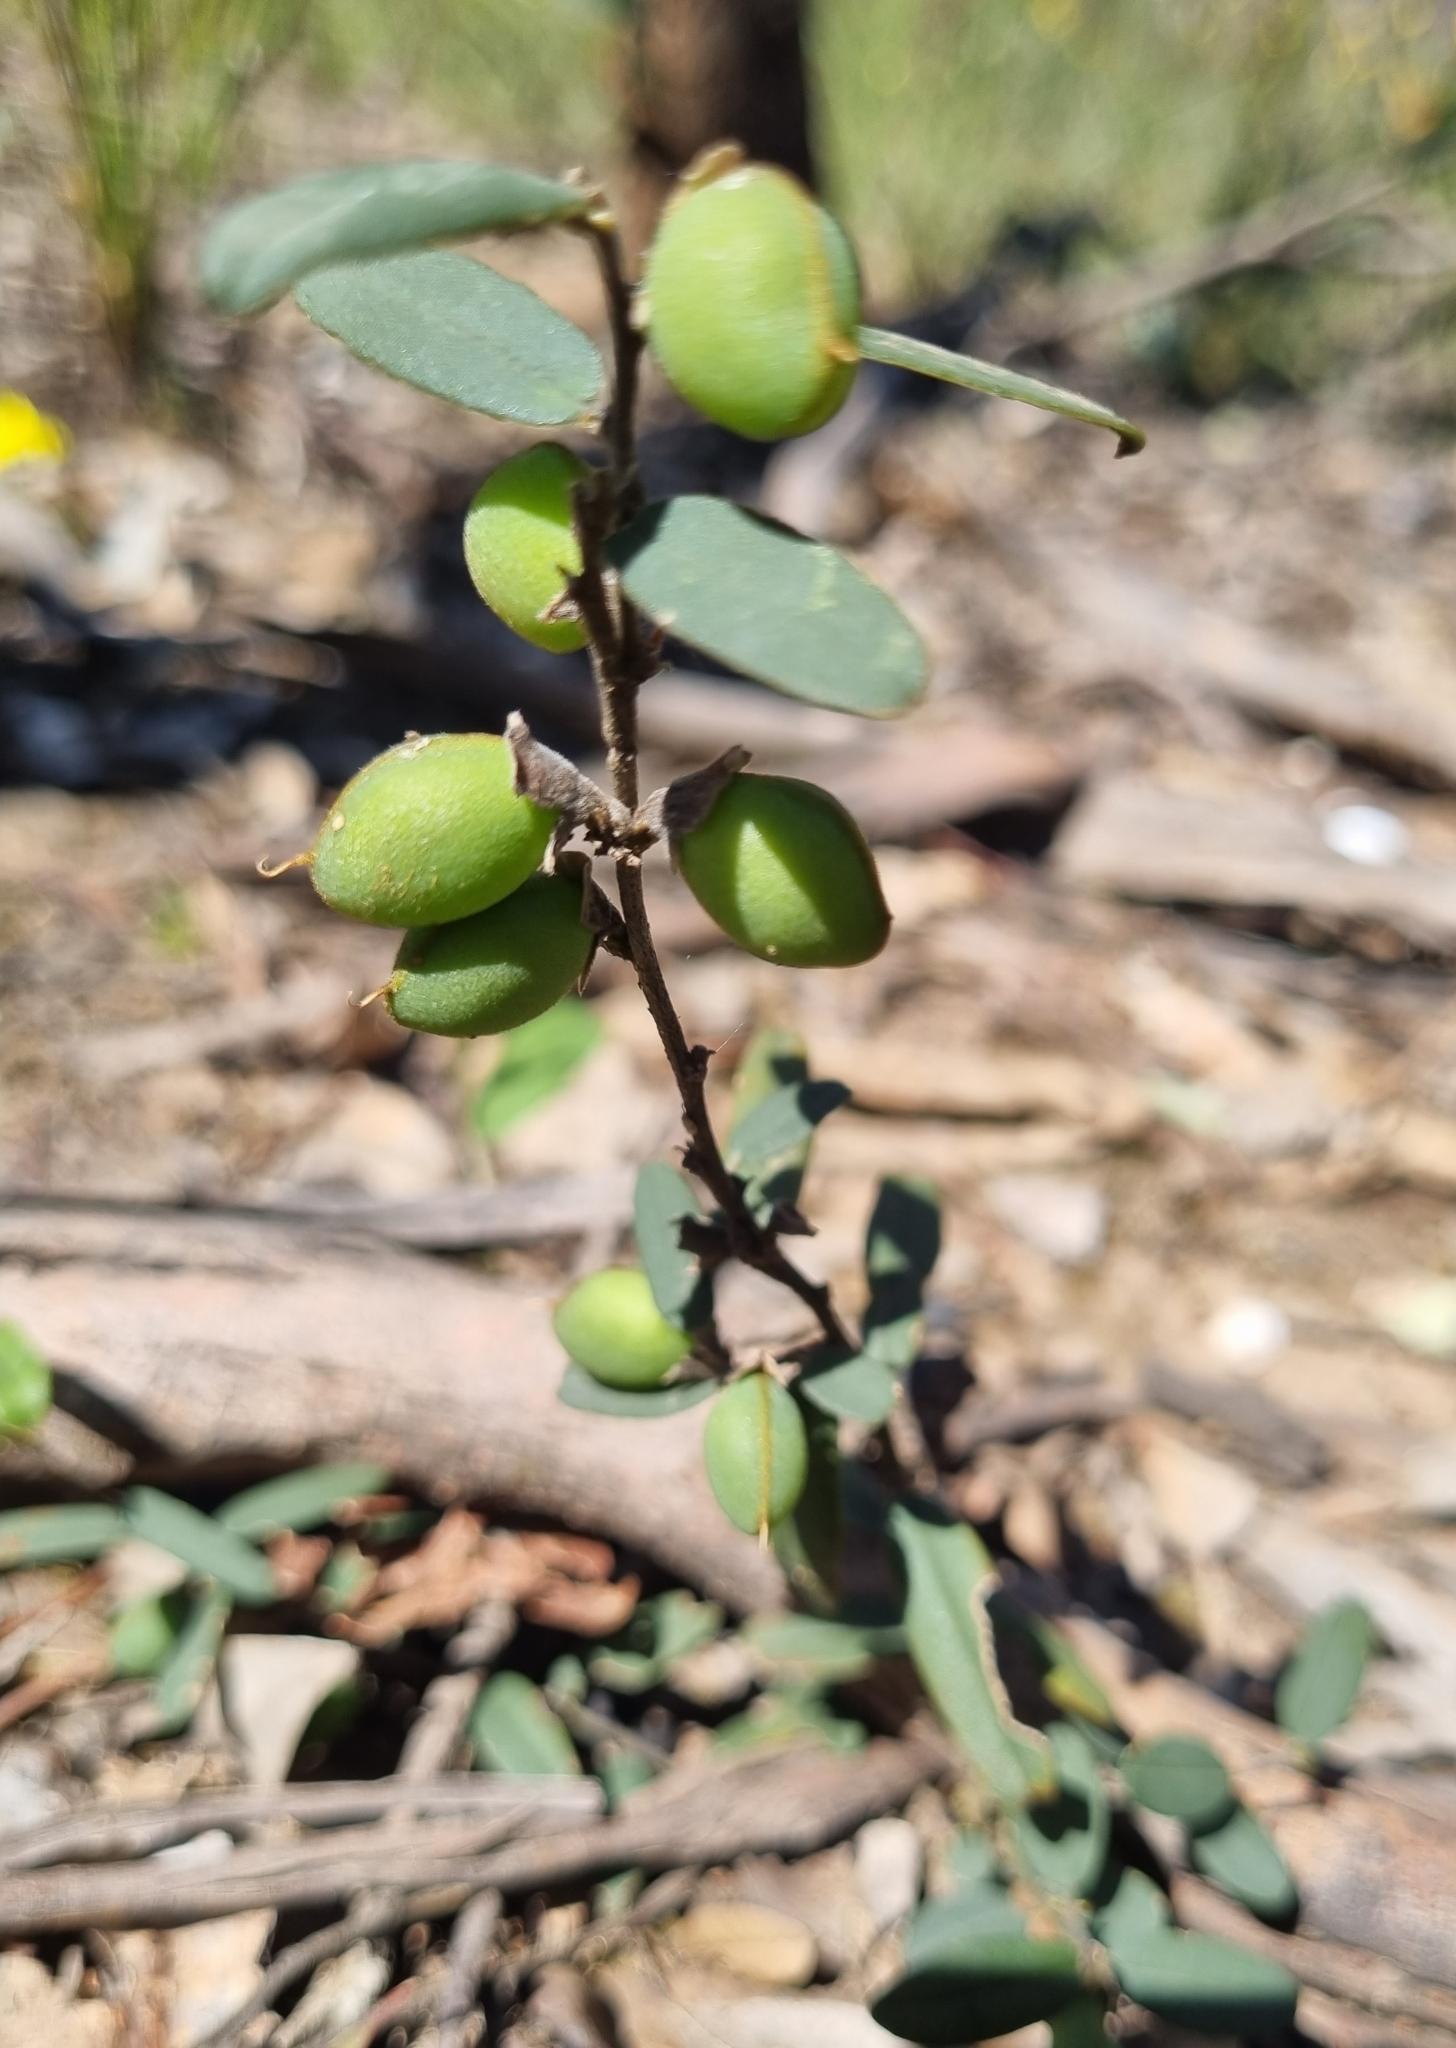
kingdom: Plantae
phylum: Tracheophyta
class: Magnoliopsida
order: Fabales
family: Fabaceae
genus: Hovea
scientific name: Hovea heterophylla
